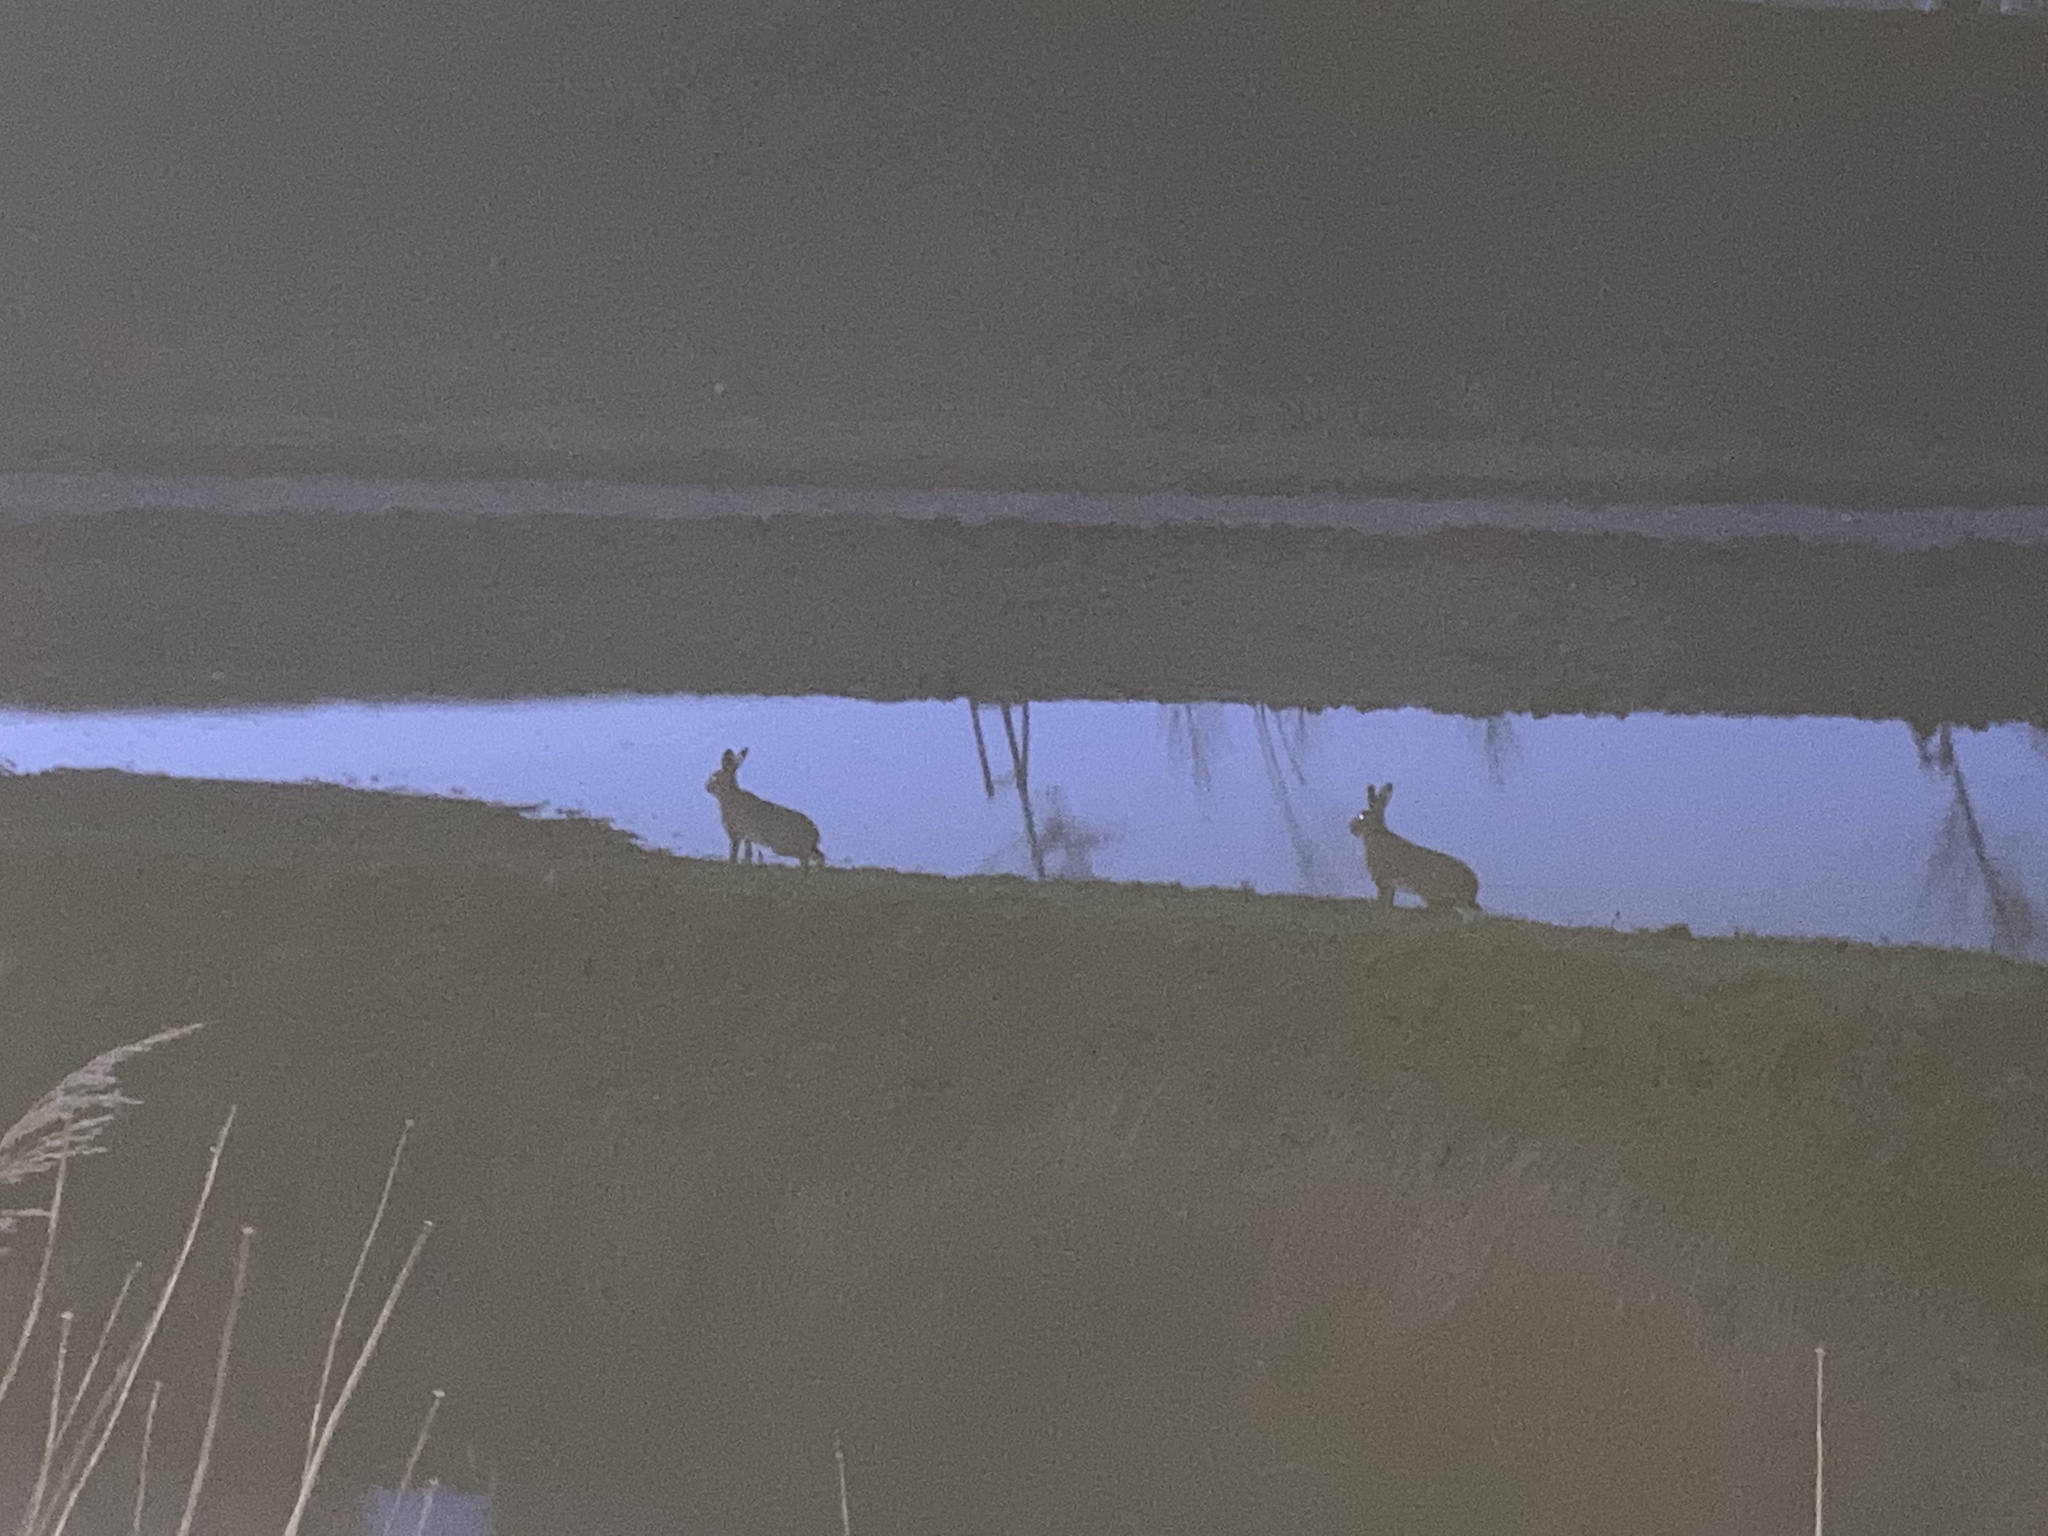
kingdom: Animalia
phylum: Chordata
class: Mammalia
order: Lagomorpha
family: Leporidae
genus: Lepus
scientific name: Lepus europaeus
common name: European hare
